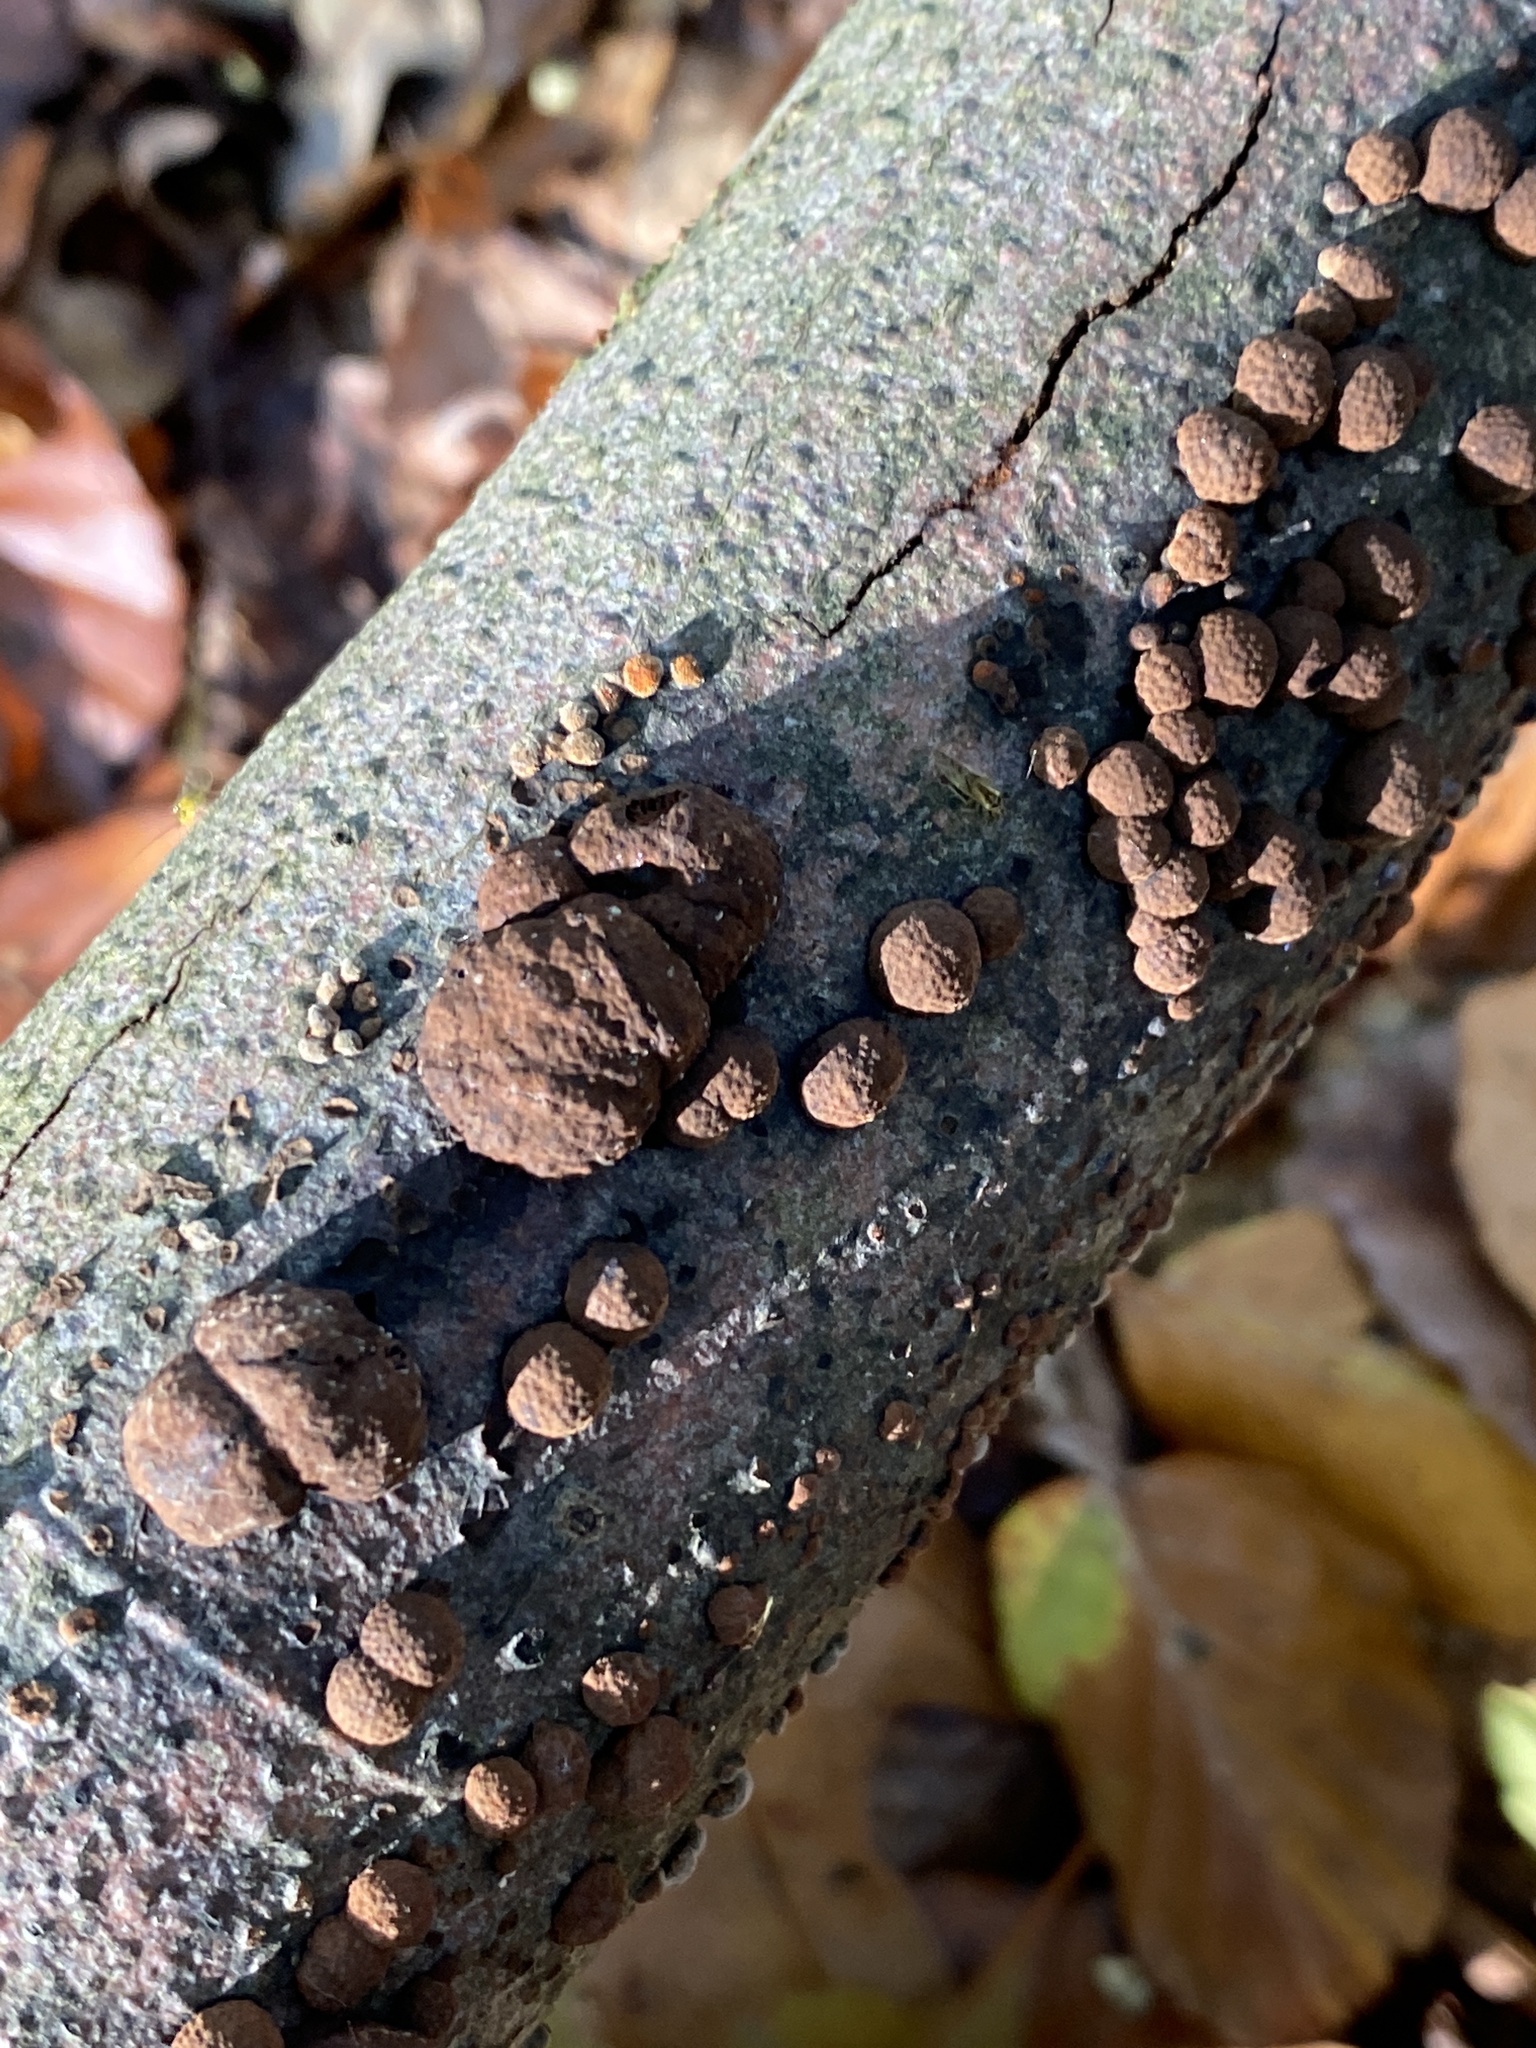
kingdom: Fungi
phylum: Ascomycota
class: Sordariomycetes
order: Xylariales
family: Hypoxylaceae
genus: Hypoxylon
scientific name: Hypoxylon fragiforme
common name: Beech woodwart
